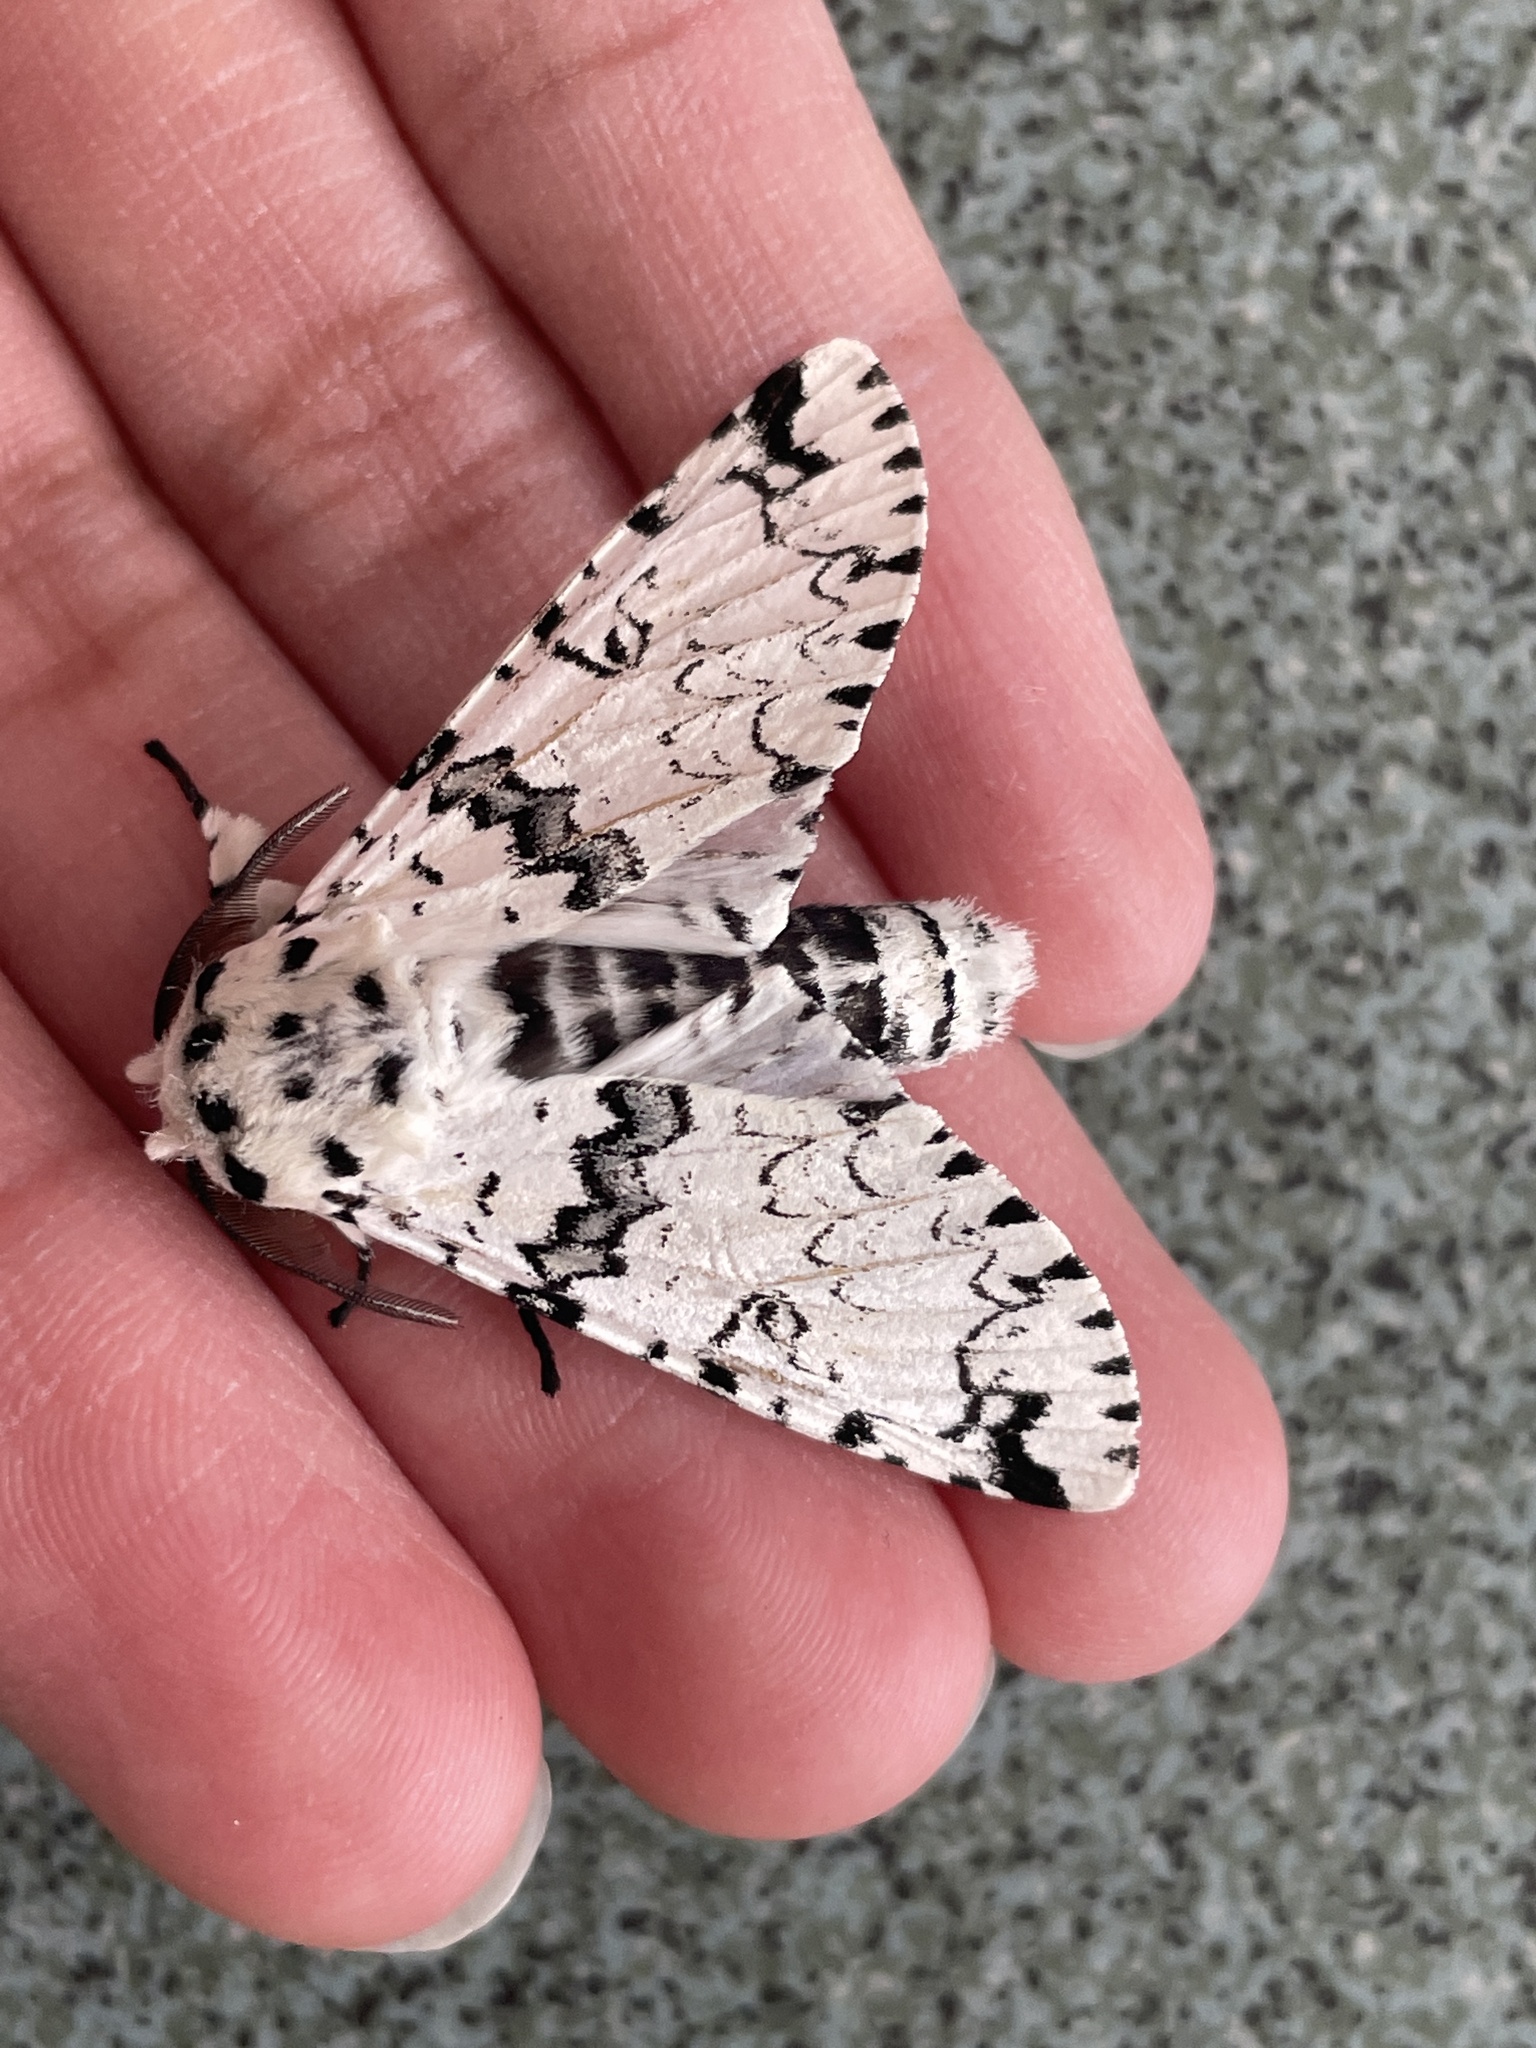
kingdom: Animalia
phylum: Arthropoda
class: Insecta
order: Lepidoptera
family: Notodontidae
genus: Kamalia
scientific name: Kamalia priapus
